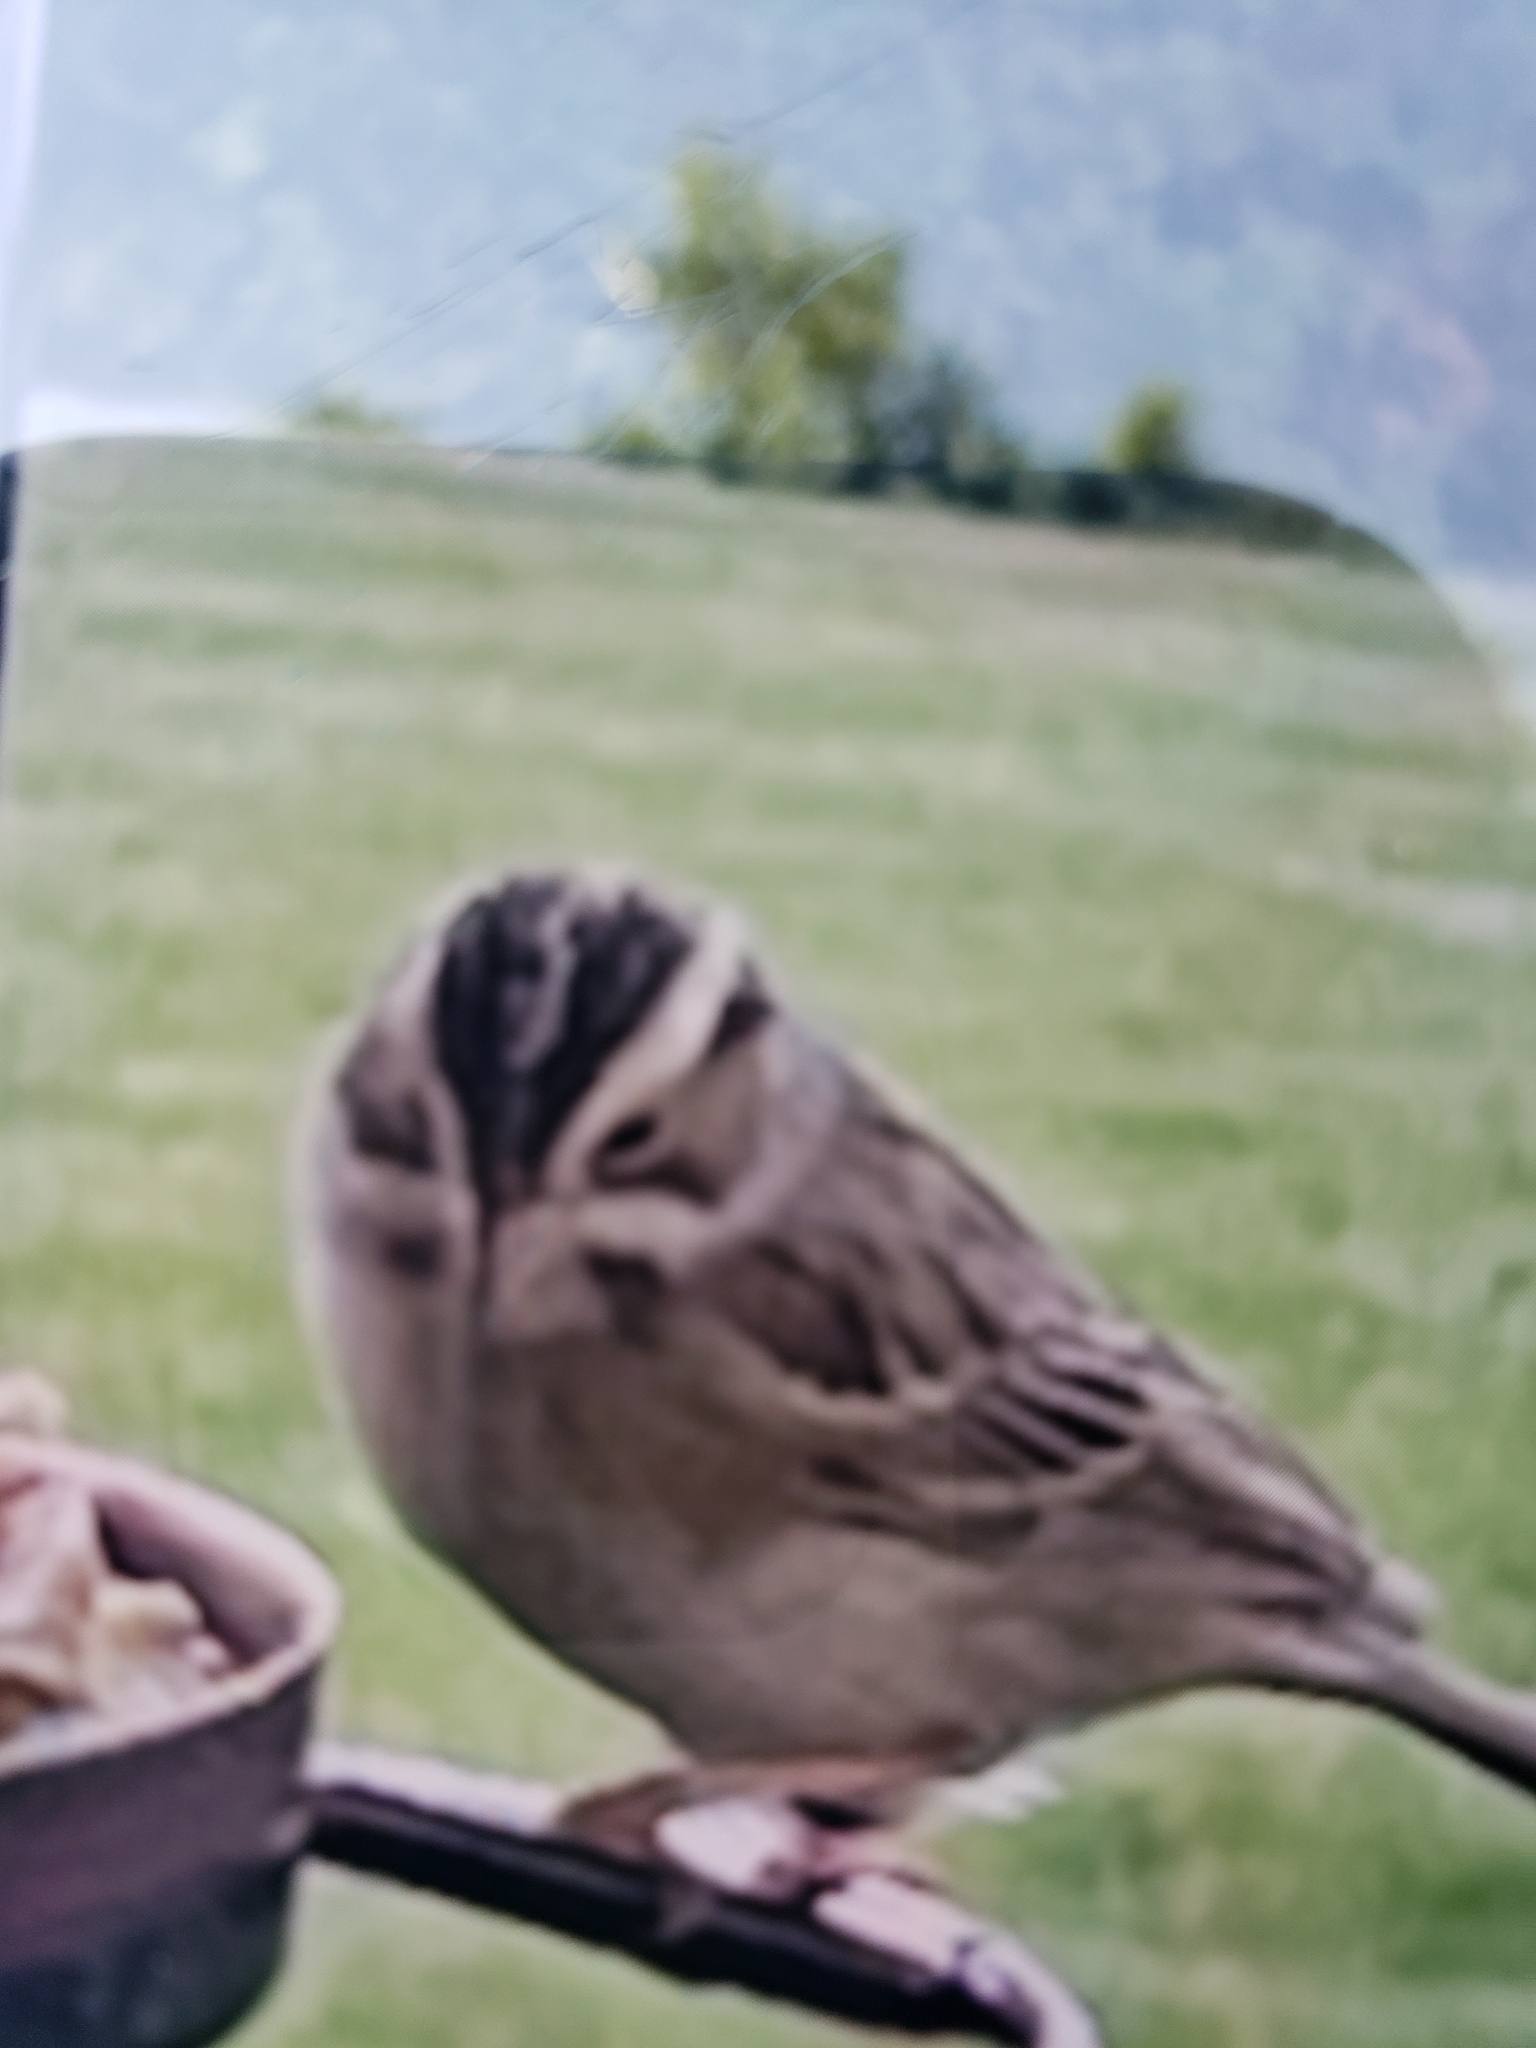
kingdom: Animalia
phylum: Chordata
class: Aves
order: Passeriformes
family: Passerellidae
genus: Spizella
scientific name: Spizella pallida
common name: Clay-colored sparrow
